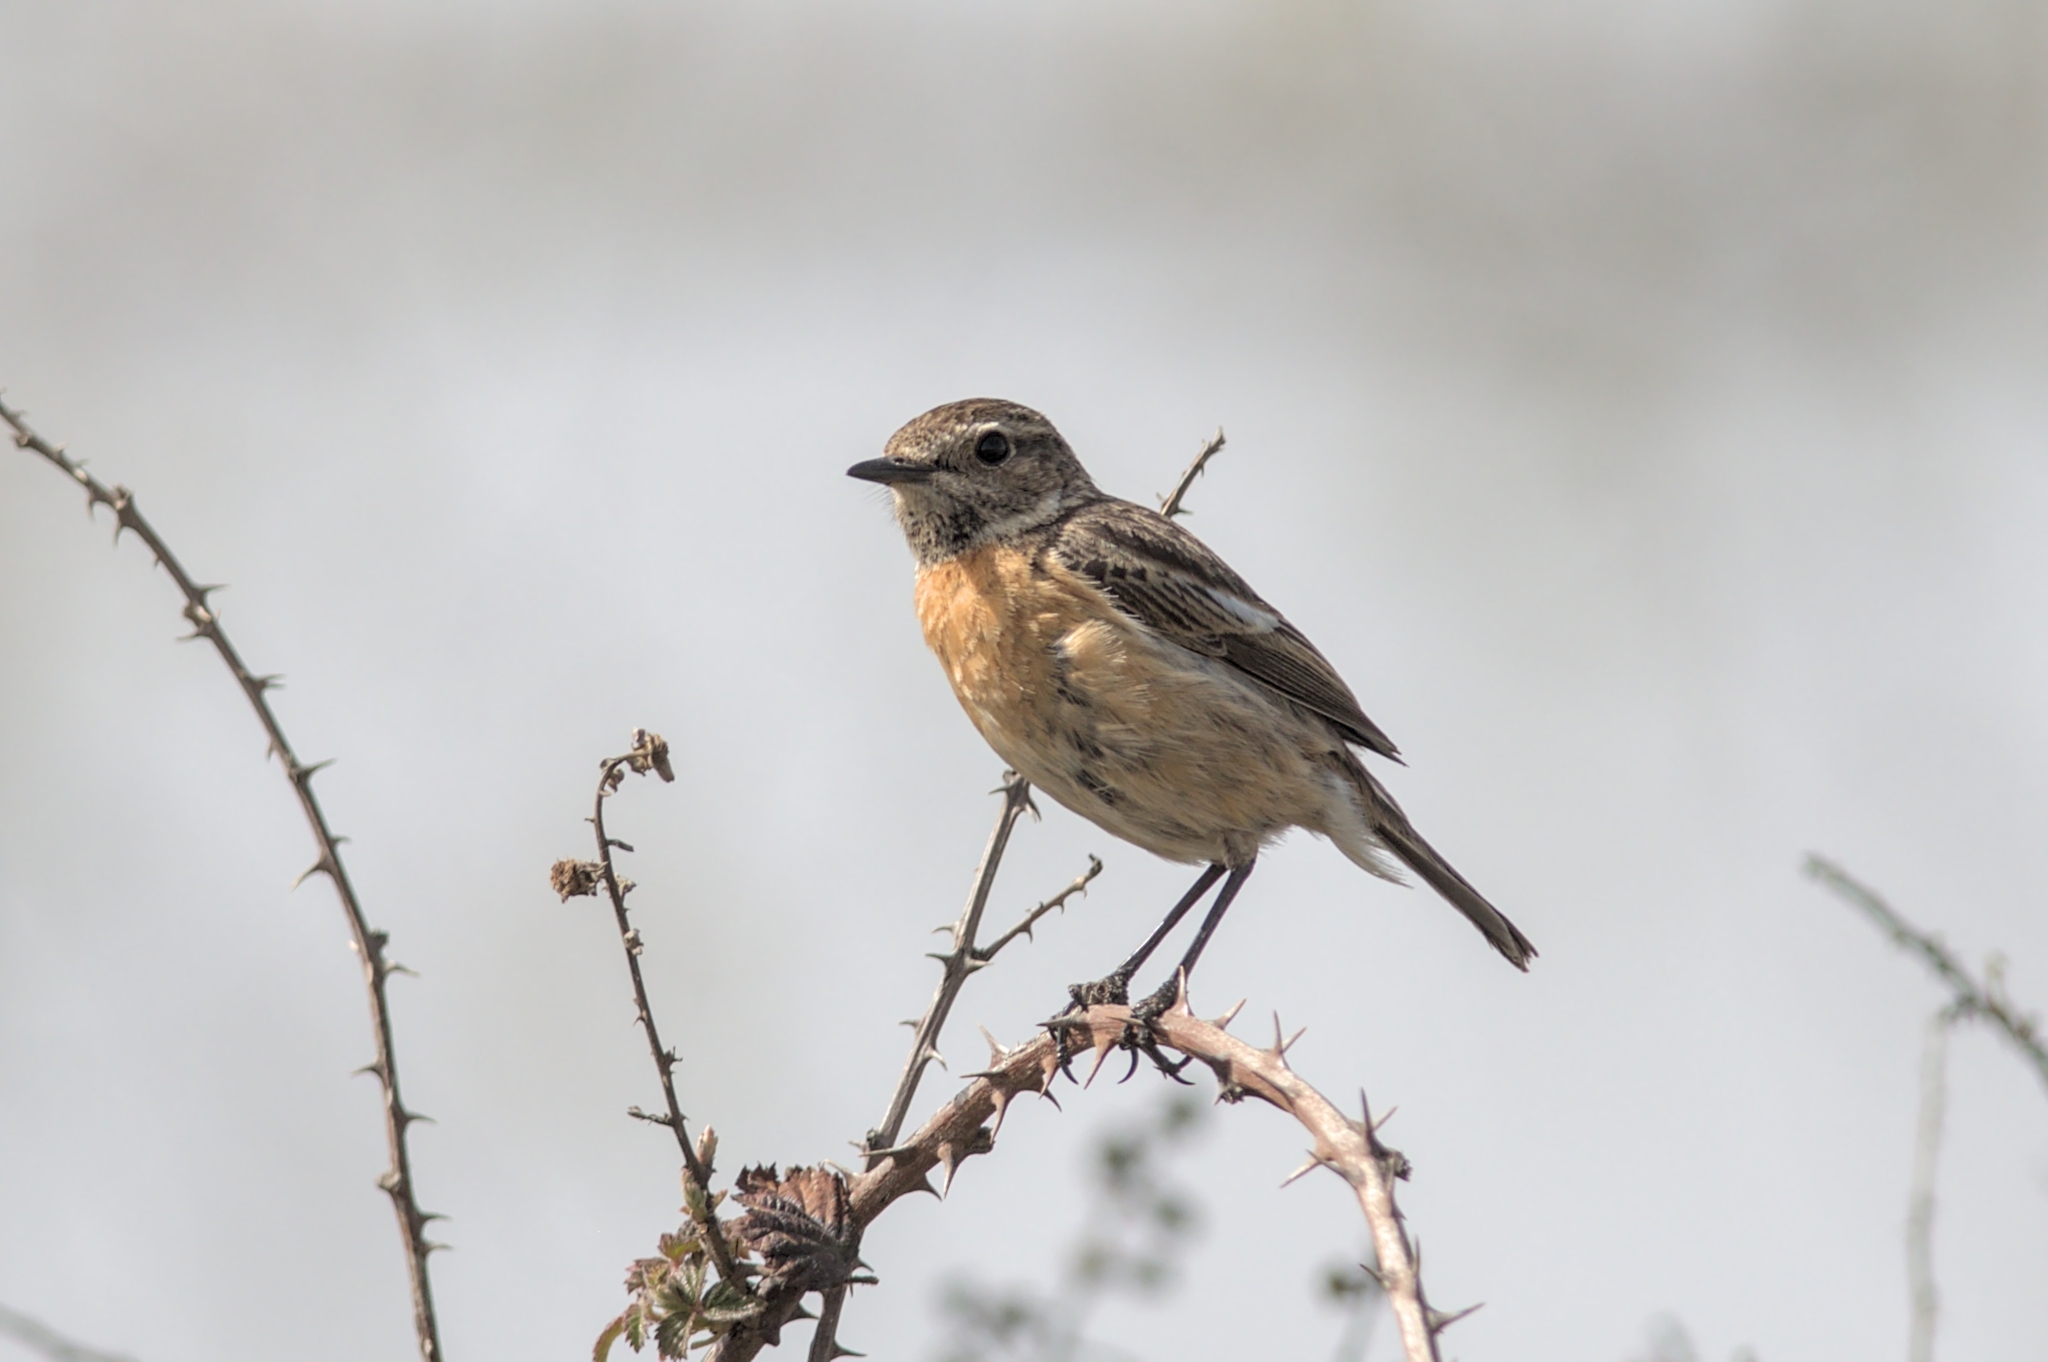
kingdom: Animalia
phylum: Chordata
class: Aves
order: Passeriformes
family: Muscicapidae
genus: Saxicola
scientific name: Saxicola rubicola
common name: European stonechat
